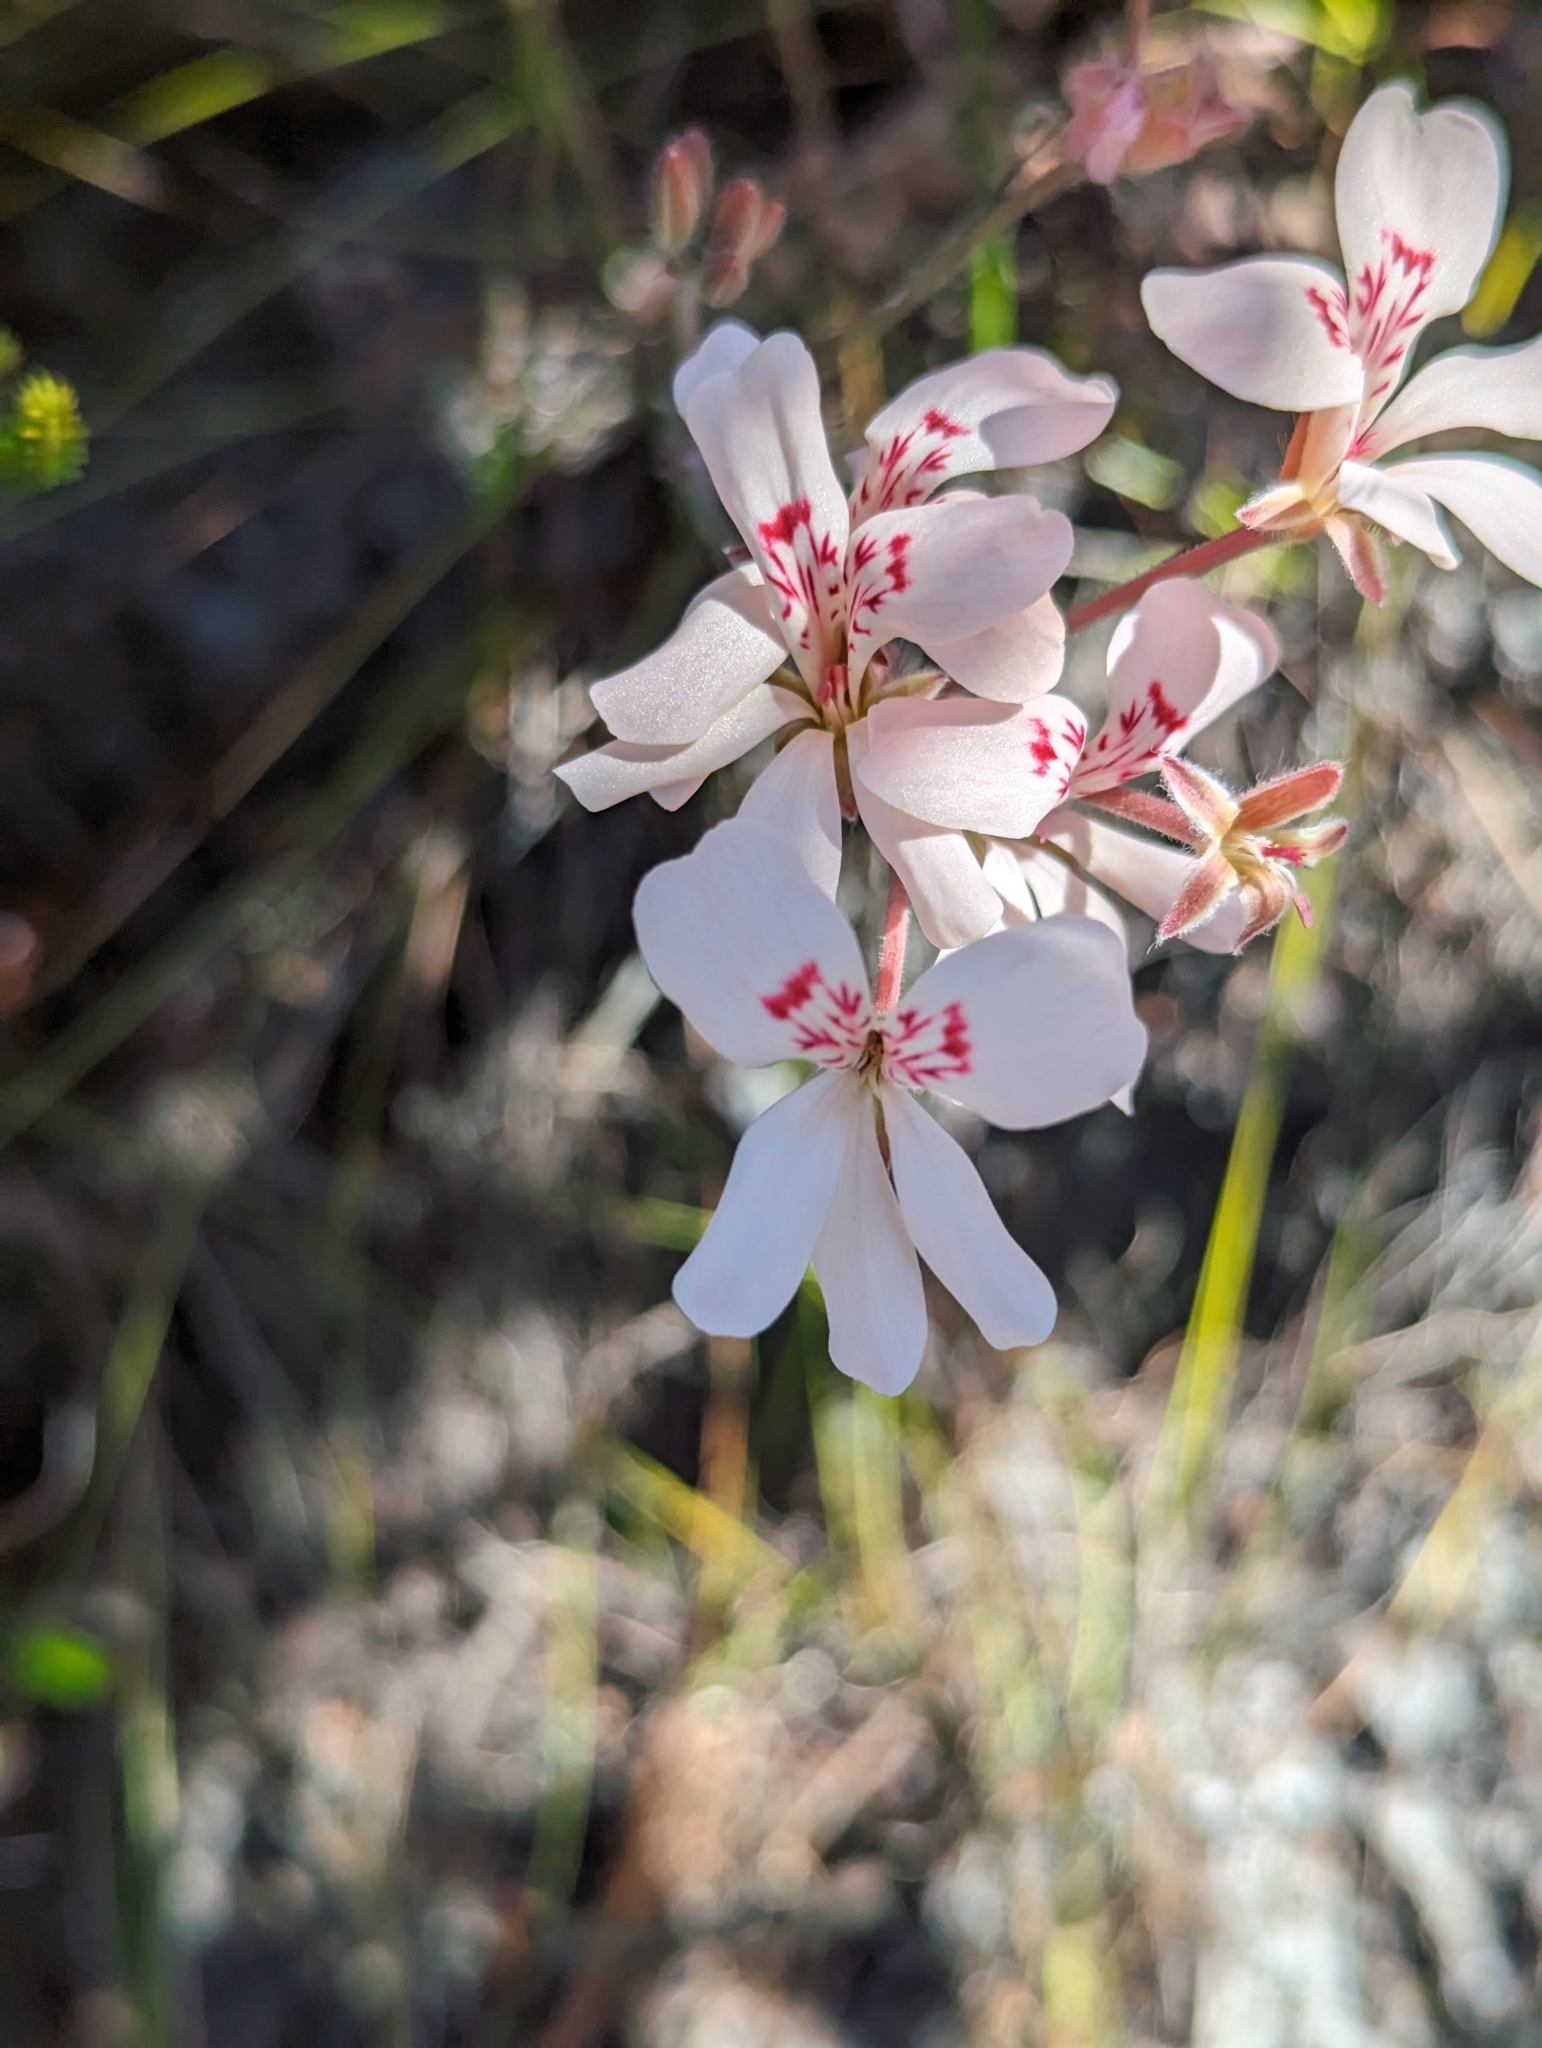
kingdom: Plantae
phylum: Tracheophyta
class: Magnoliopsida
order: Geraniales
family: Geraniaceae
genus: Pelargonium
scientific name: Pelargonium pinnatum
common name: Pinnated pelargonium
